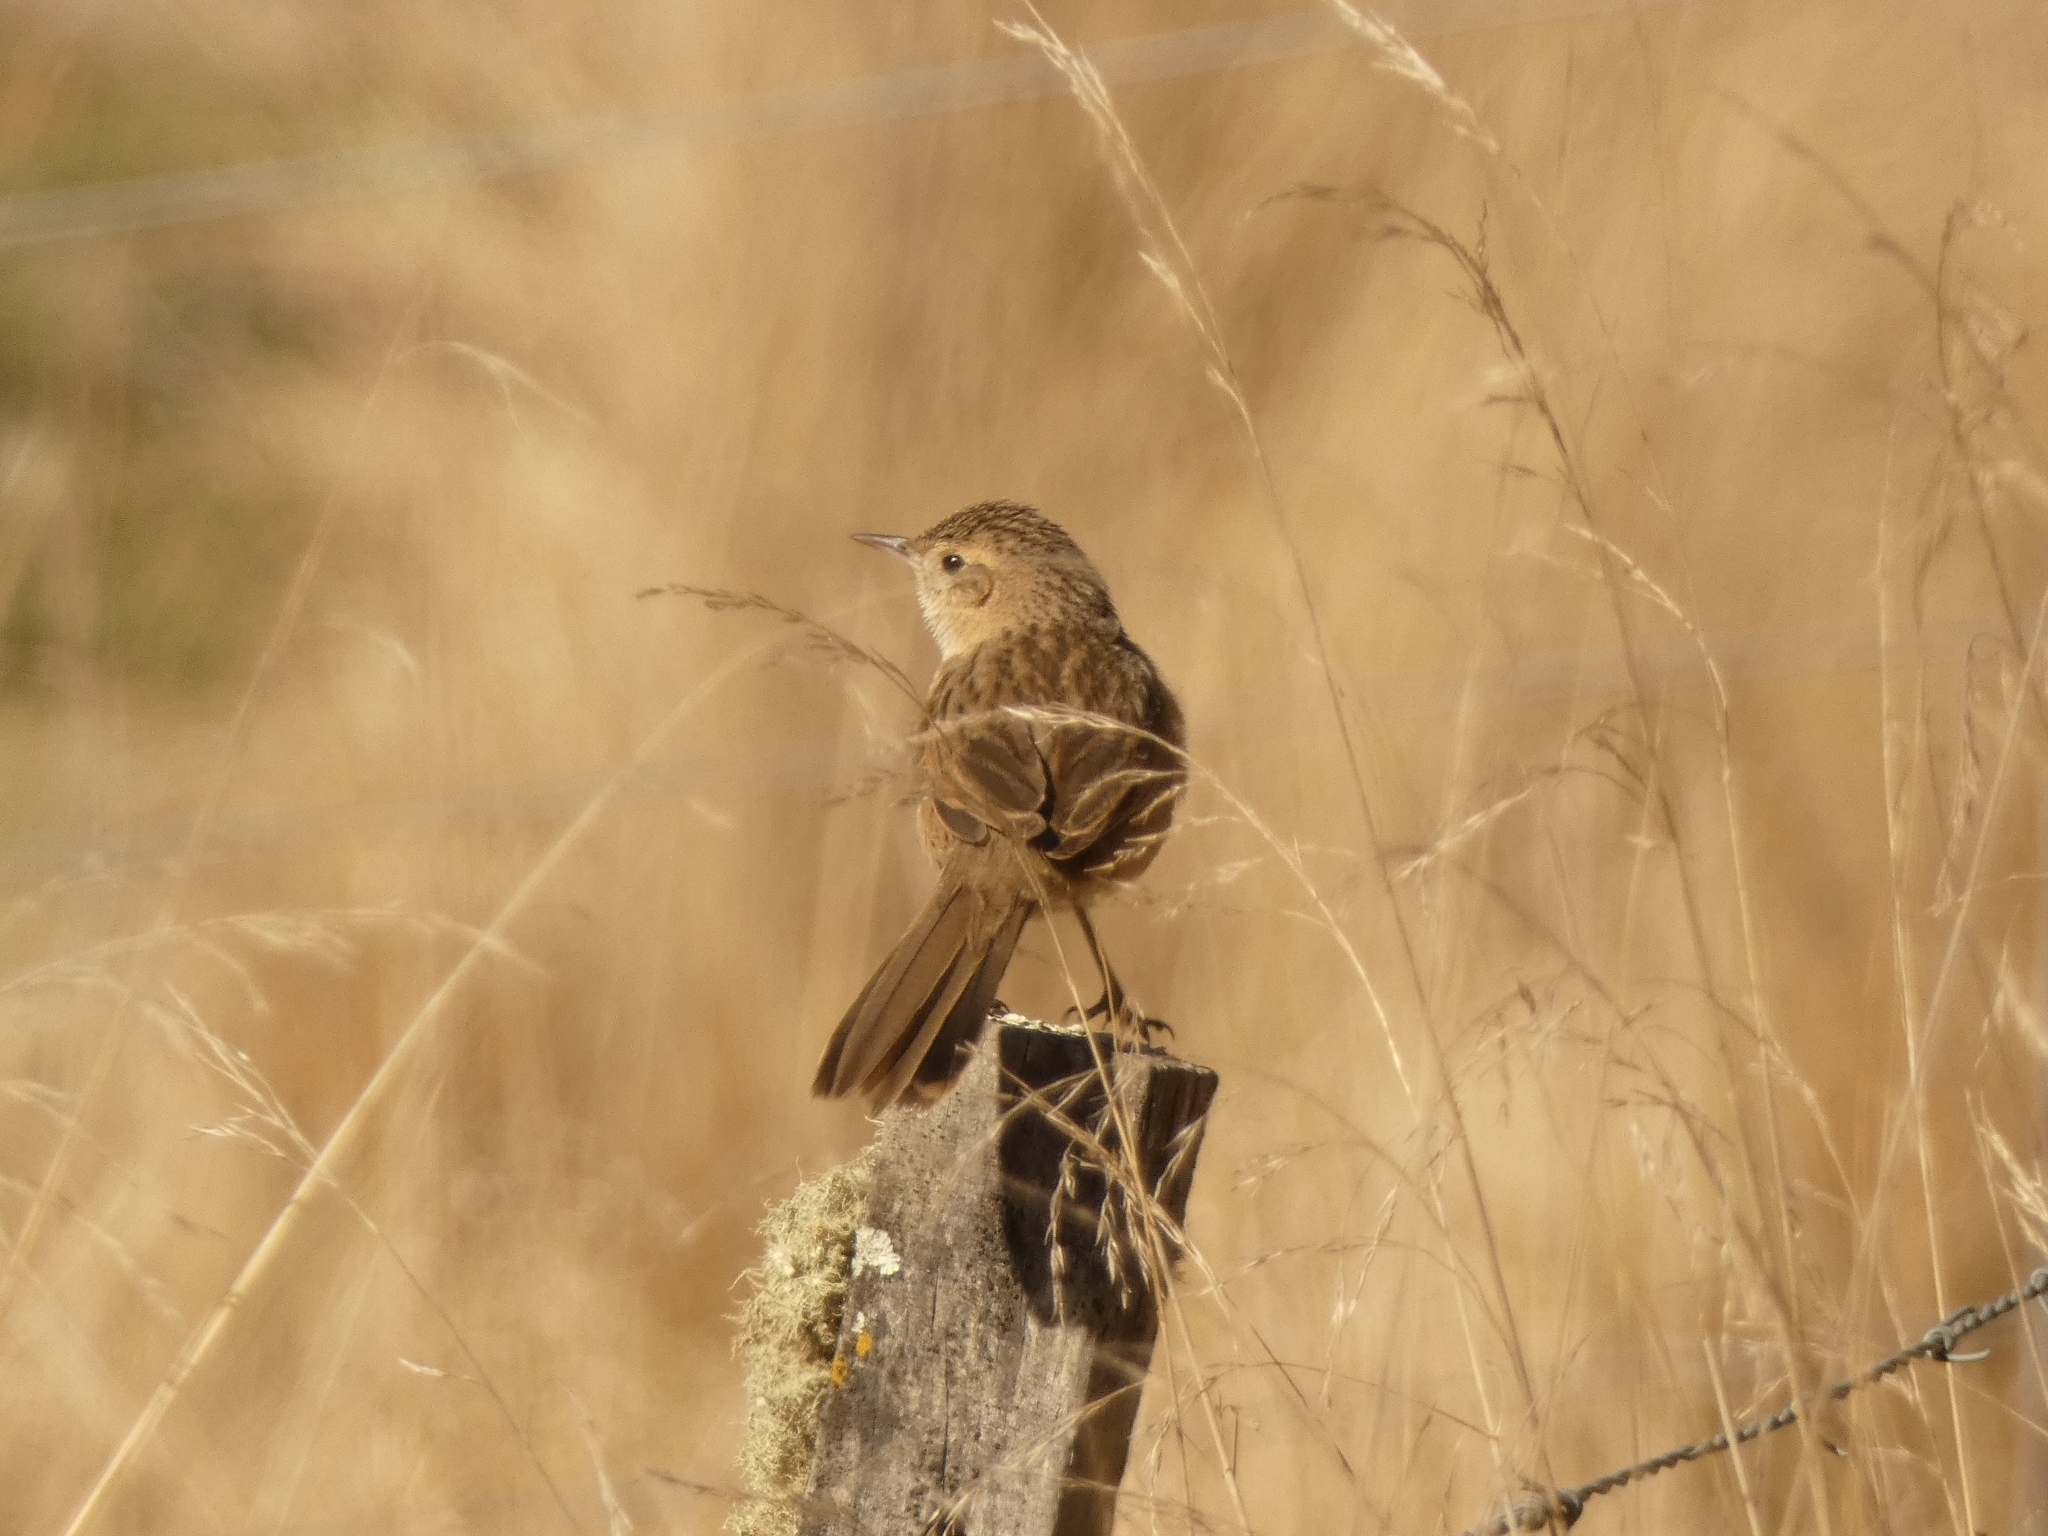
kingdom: Animalia
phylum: Chordata
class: Aves
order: Passeriformes
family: Furnariidae
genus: Asthenes
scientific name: Asthenes wyatti
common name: Streak-backed canastero
